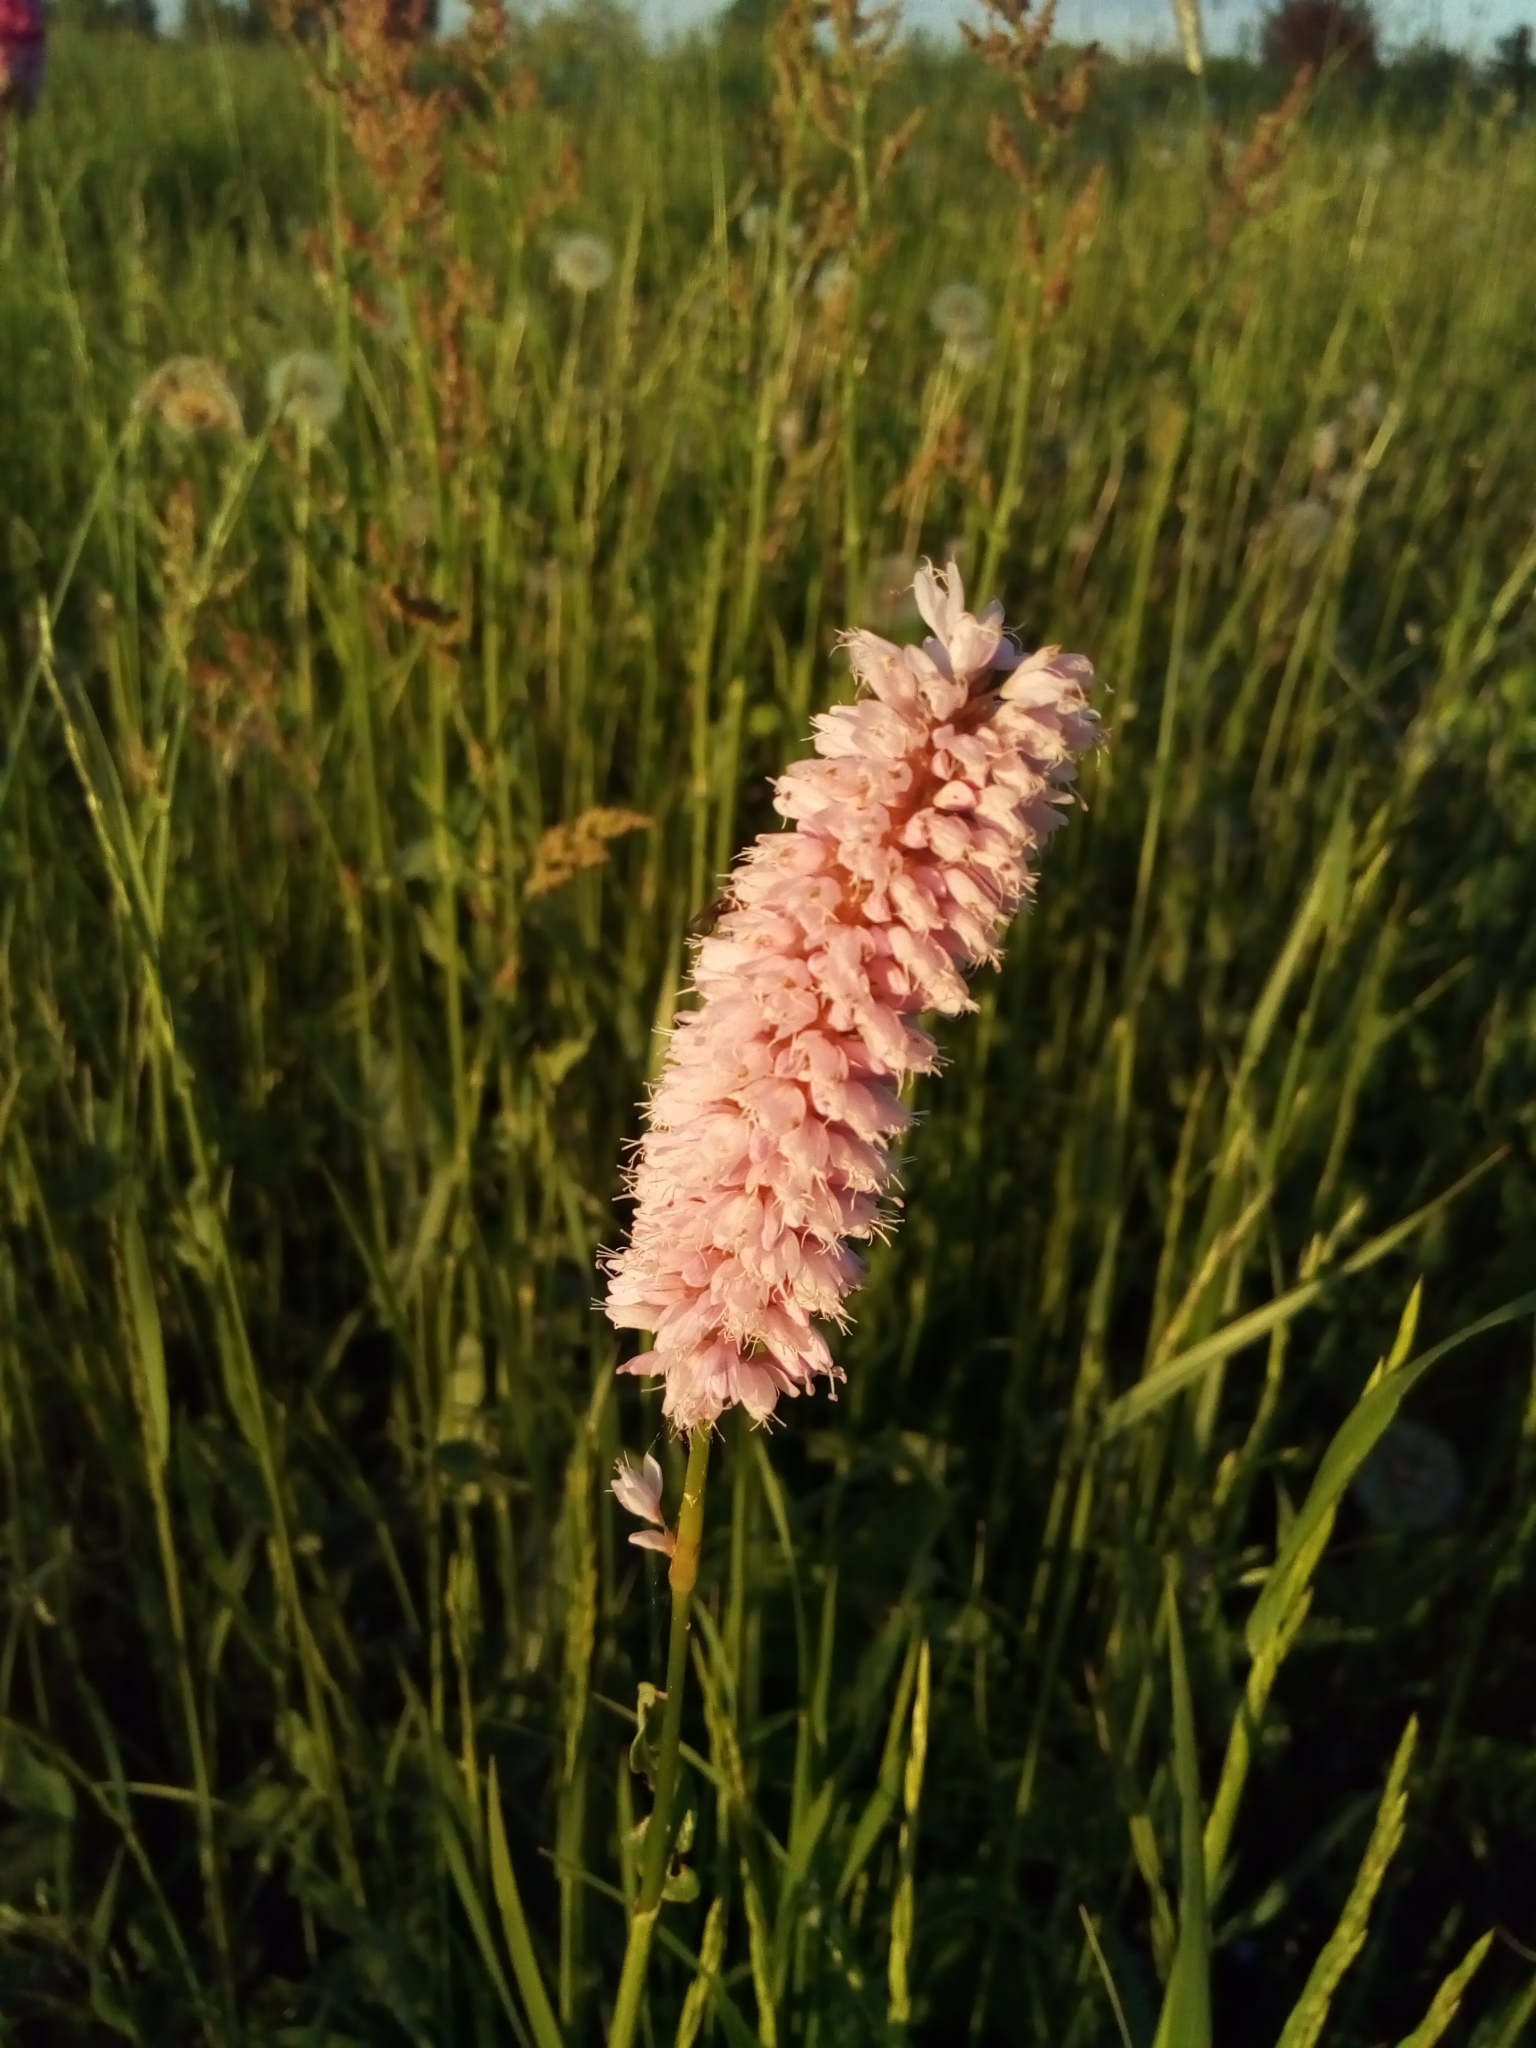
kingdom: Plantae
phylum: Tracheophyta
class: Magnoliopsida
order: Caryophyllales
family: Polygonaceae
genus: Bistorta
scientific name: Bistorta officinalis
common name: Common bistort
